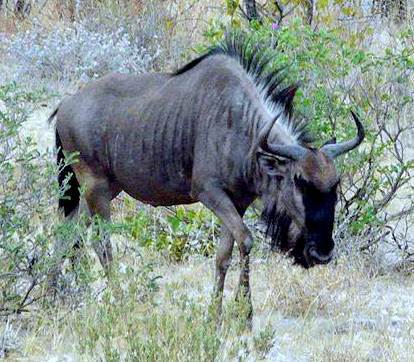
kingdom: Animalia
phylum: Chordata
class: Mammalia
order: Artiodactyla
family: Bovidae
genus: Connochaetes
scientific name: Connochaetes taurinus
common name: Blue wildebeest
